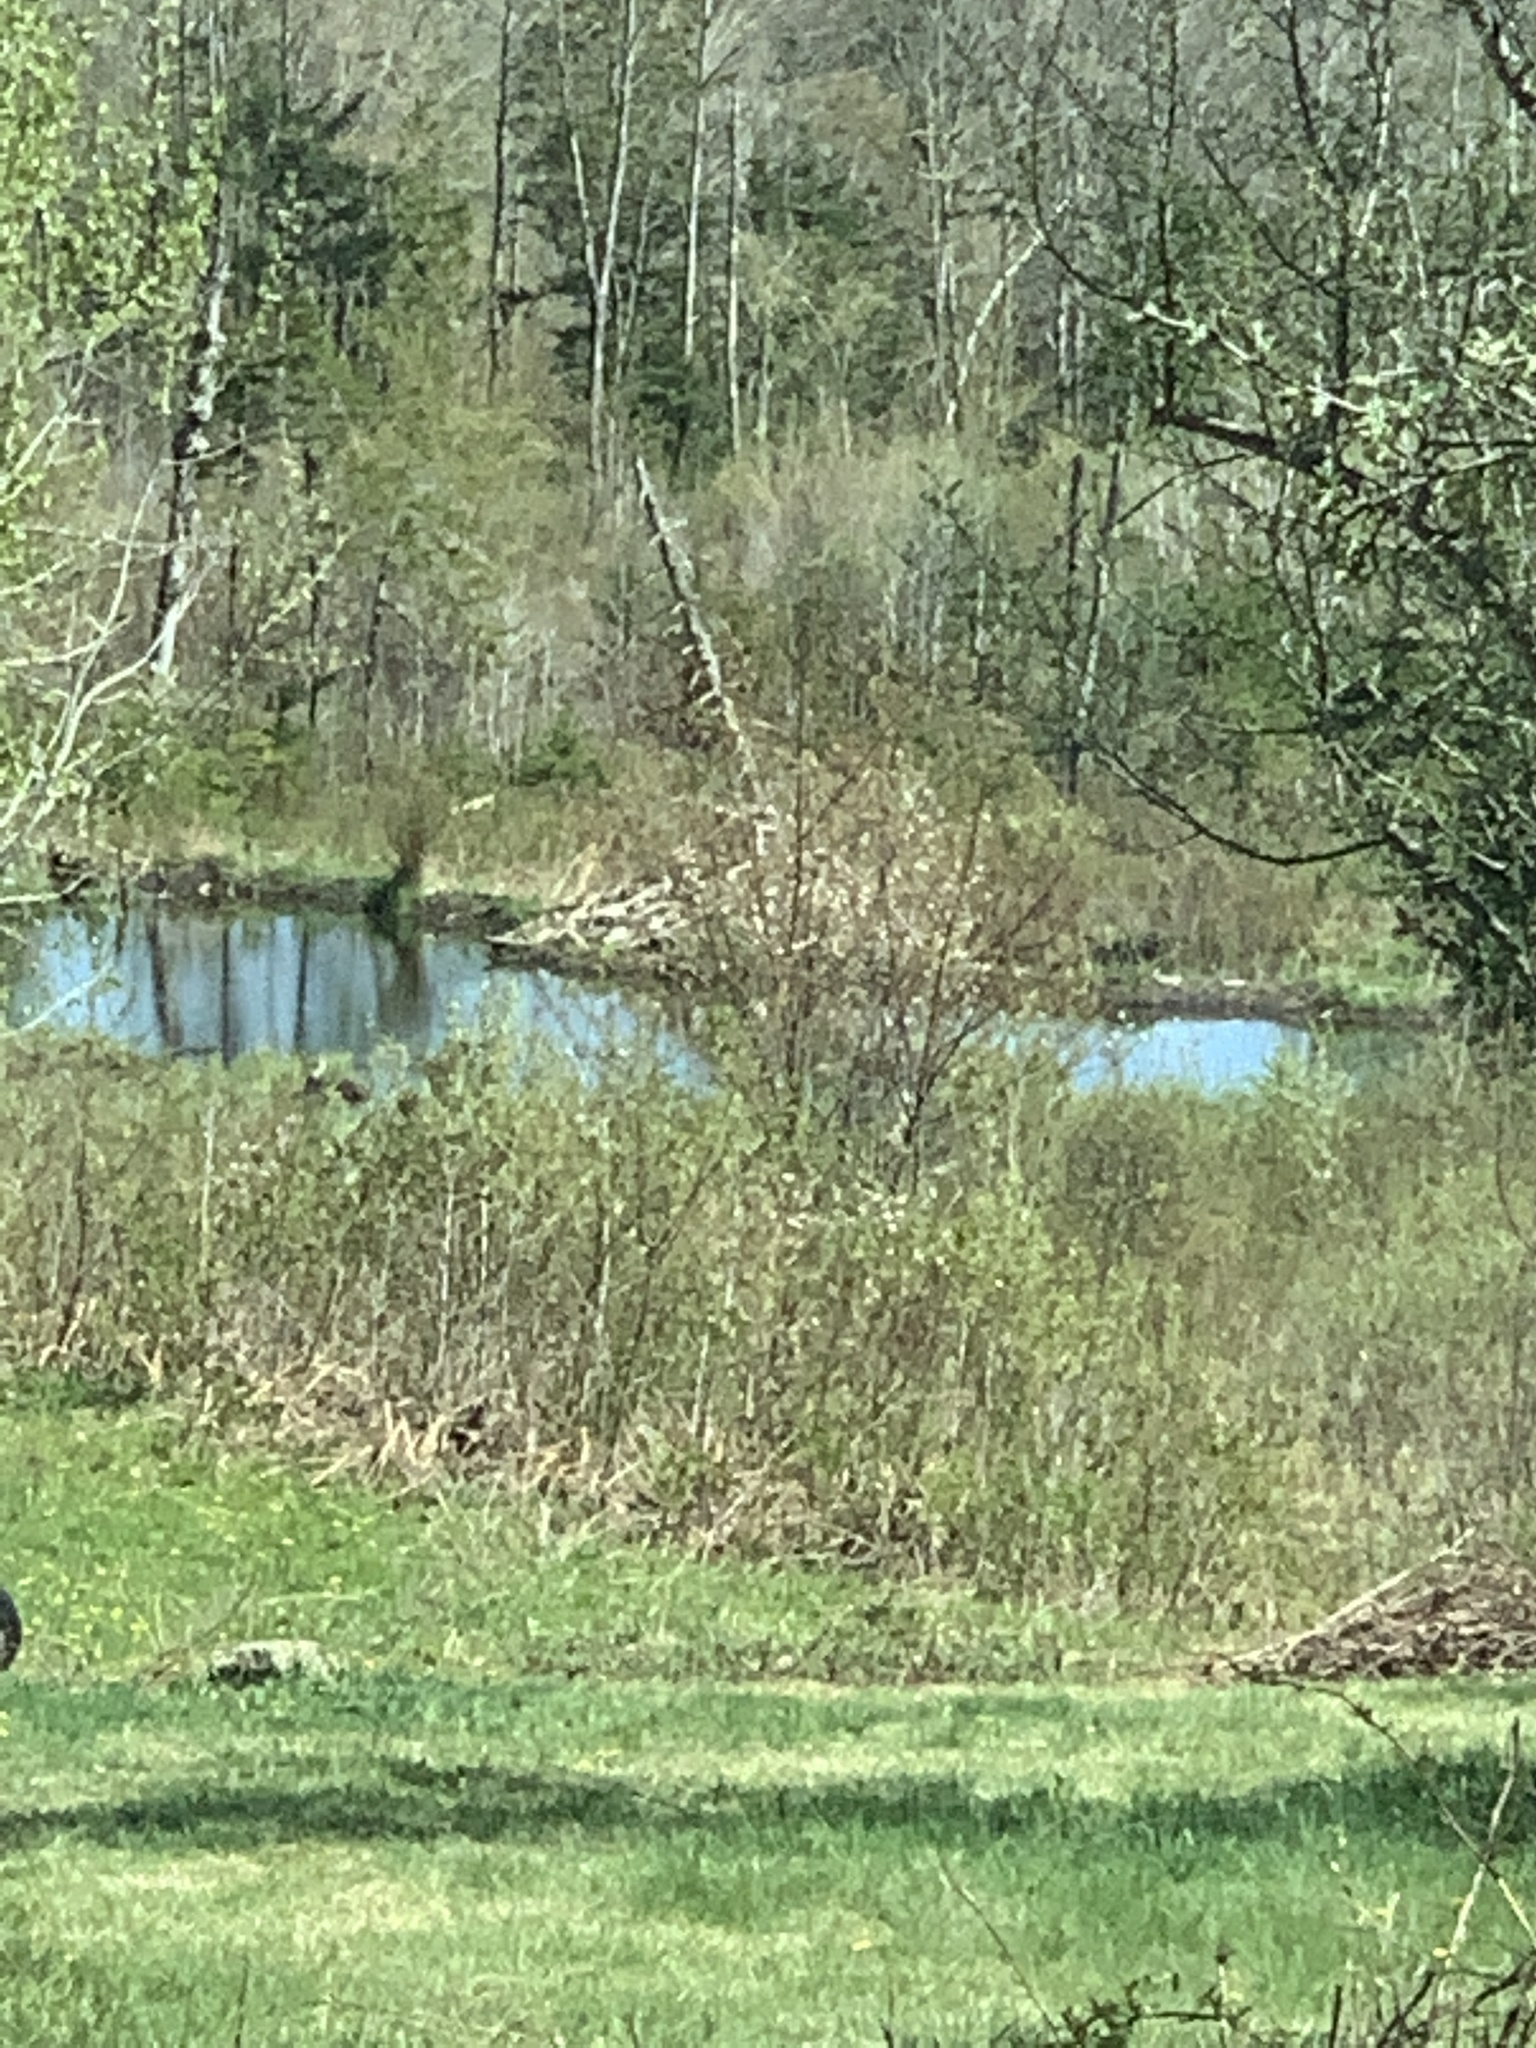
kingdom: Animalia
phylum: Chordata
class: Mammalia
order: Rodentia
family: Castoridae
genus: Castor
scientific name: Castor canadensis
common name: American beaver
